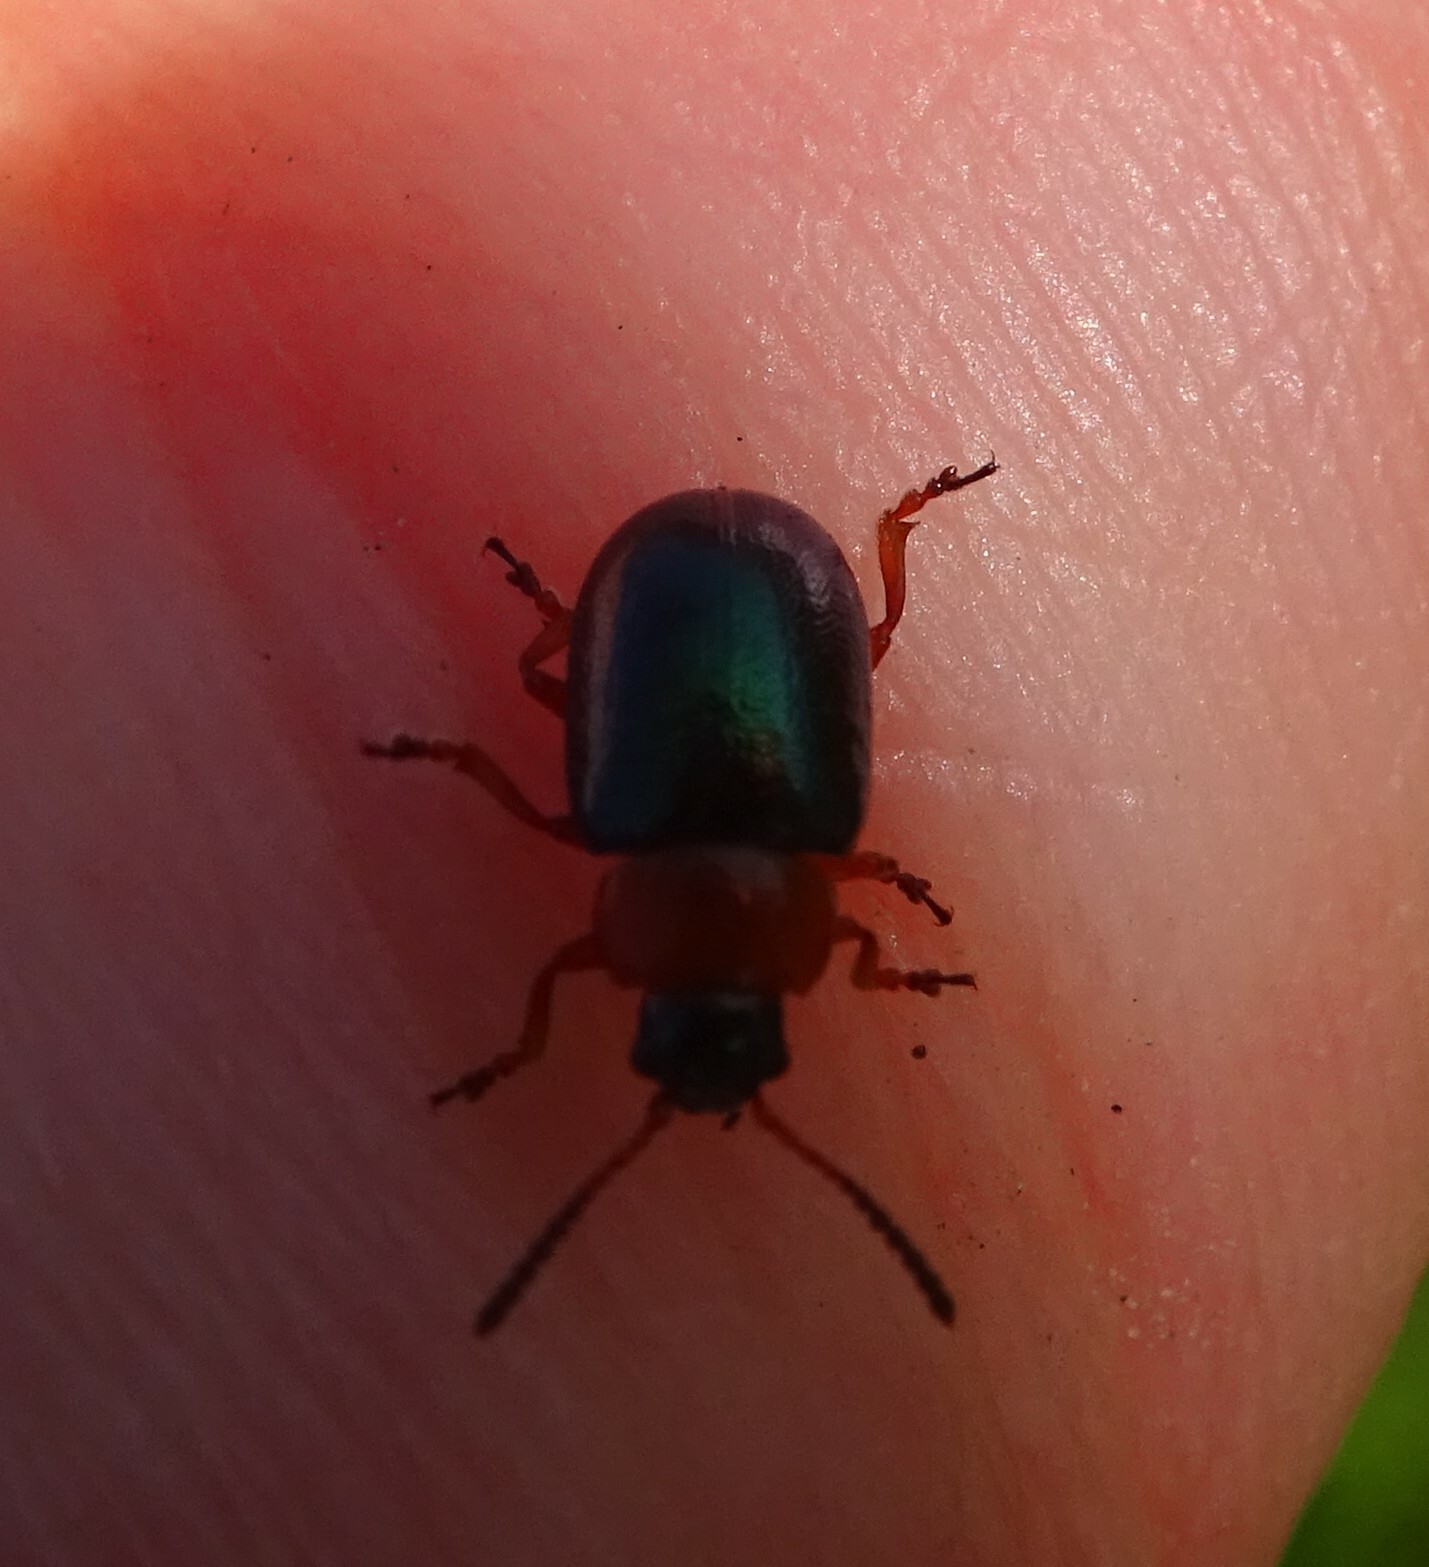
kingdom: Animalia
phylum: Arthropoda
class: Insecta
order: Coleoptera
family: Chrysomelidae
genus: Gastrophysa
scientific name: Gastrophysa polygoni
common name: Knotweed leaf beetle
